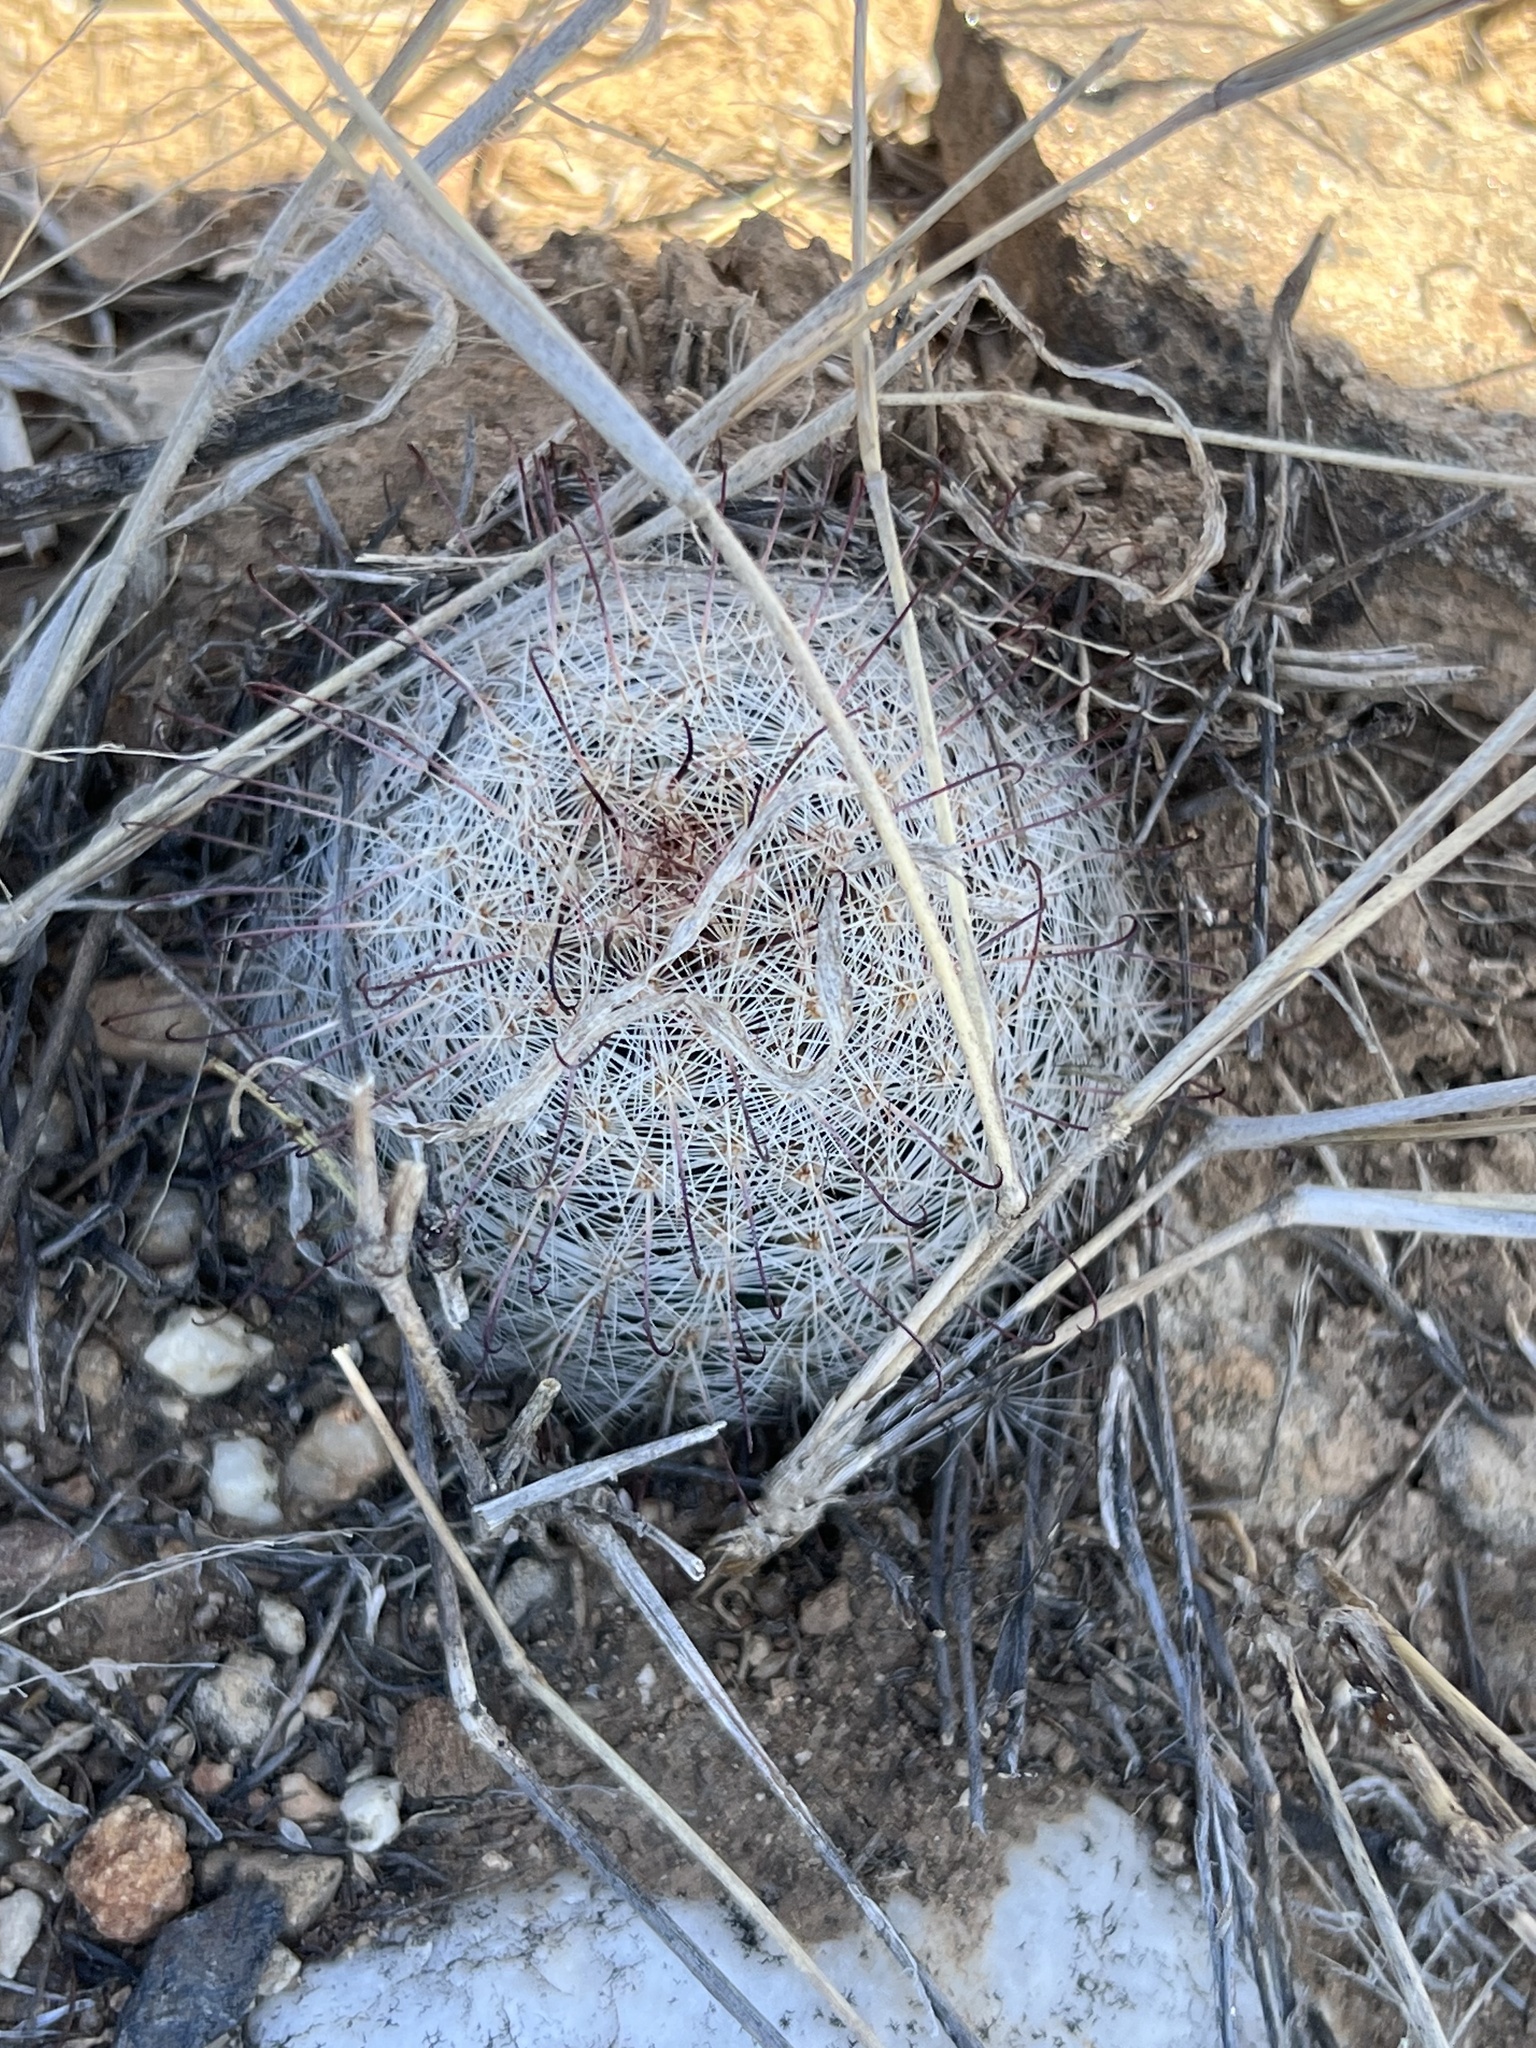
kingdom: Plantae
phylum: Tracheophyta
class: Magnoliopsida
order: Caryophyllales
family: Cactaceae
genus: Cochemiea
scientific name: Cochemiea grahamii
